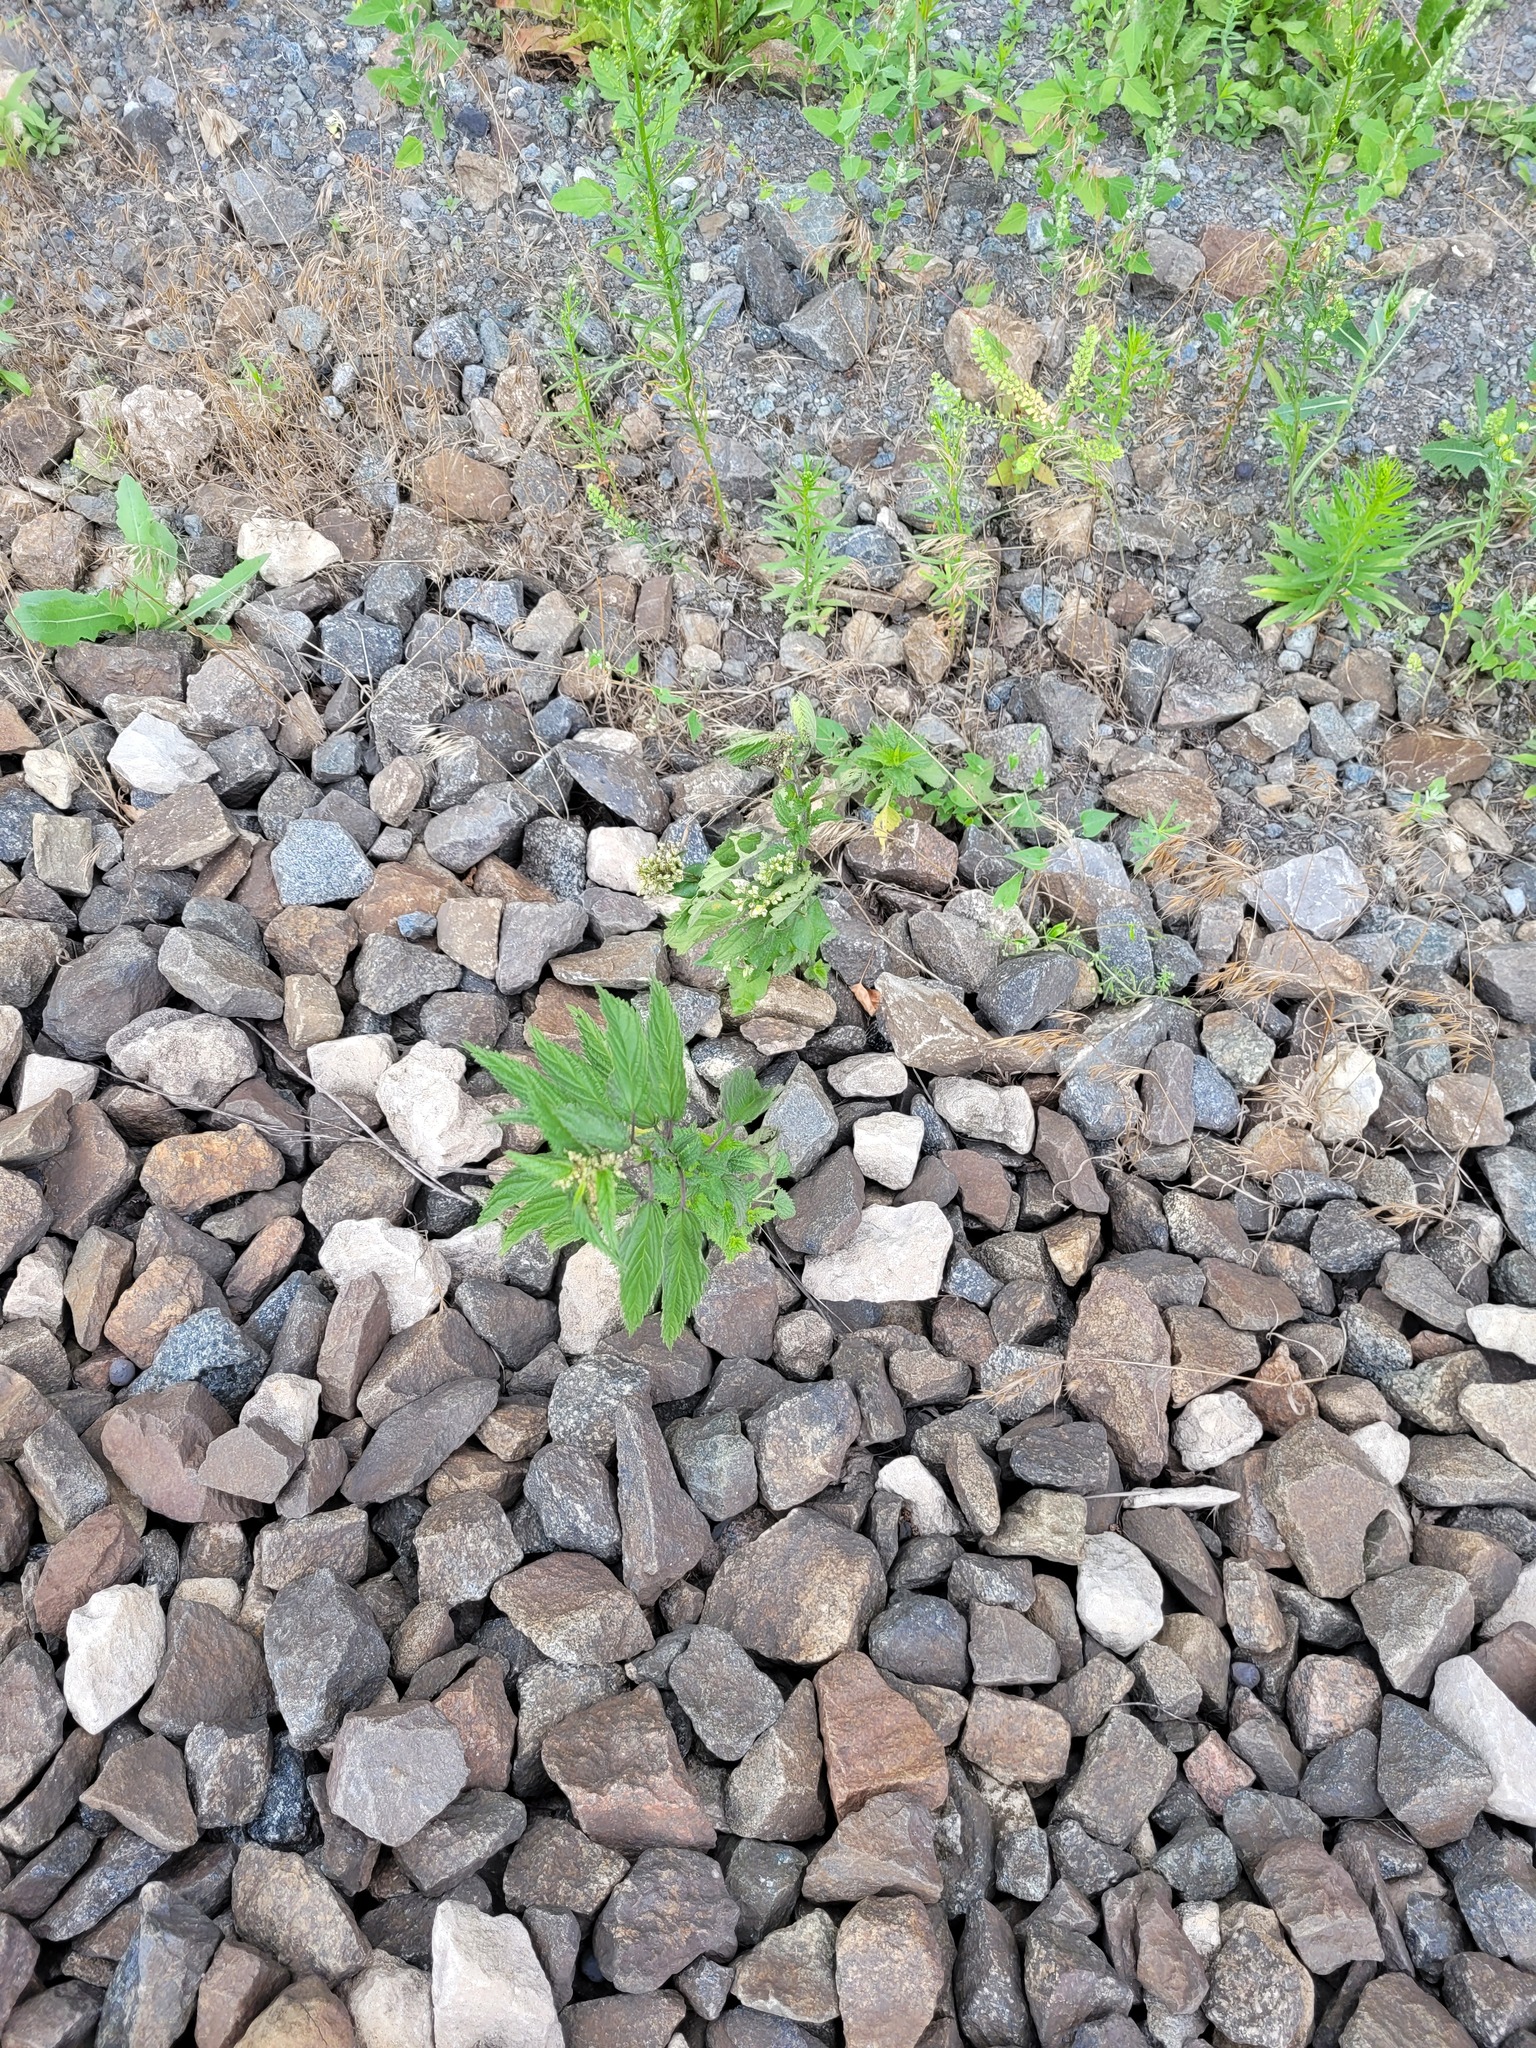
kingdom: Plantae
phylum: Tracheophyta
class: Magnoliopsida
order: Rosales
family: Urticaceae
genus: Urtica
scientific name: Urtica dioica
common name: Common nettle
